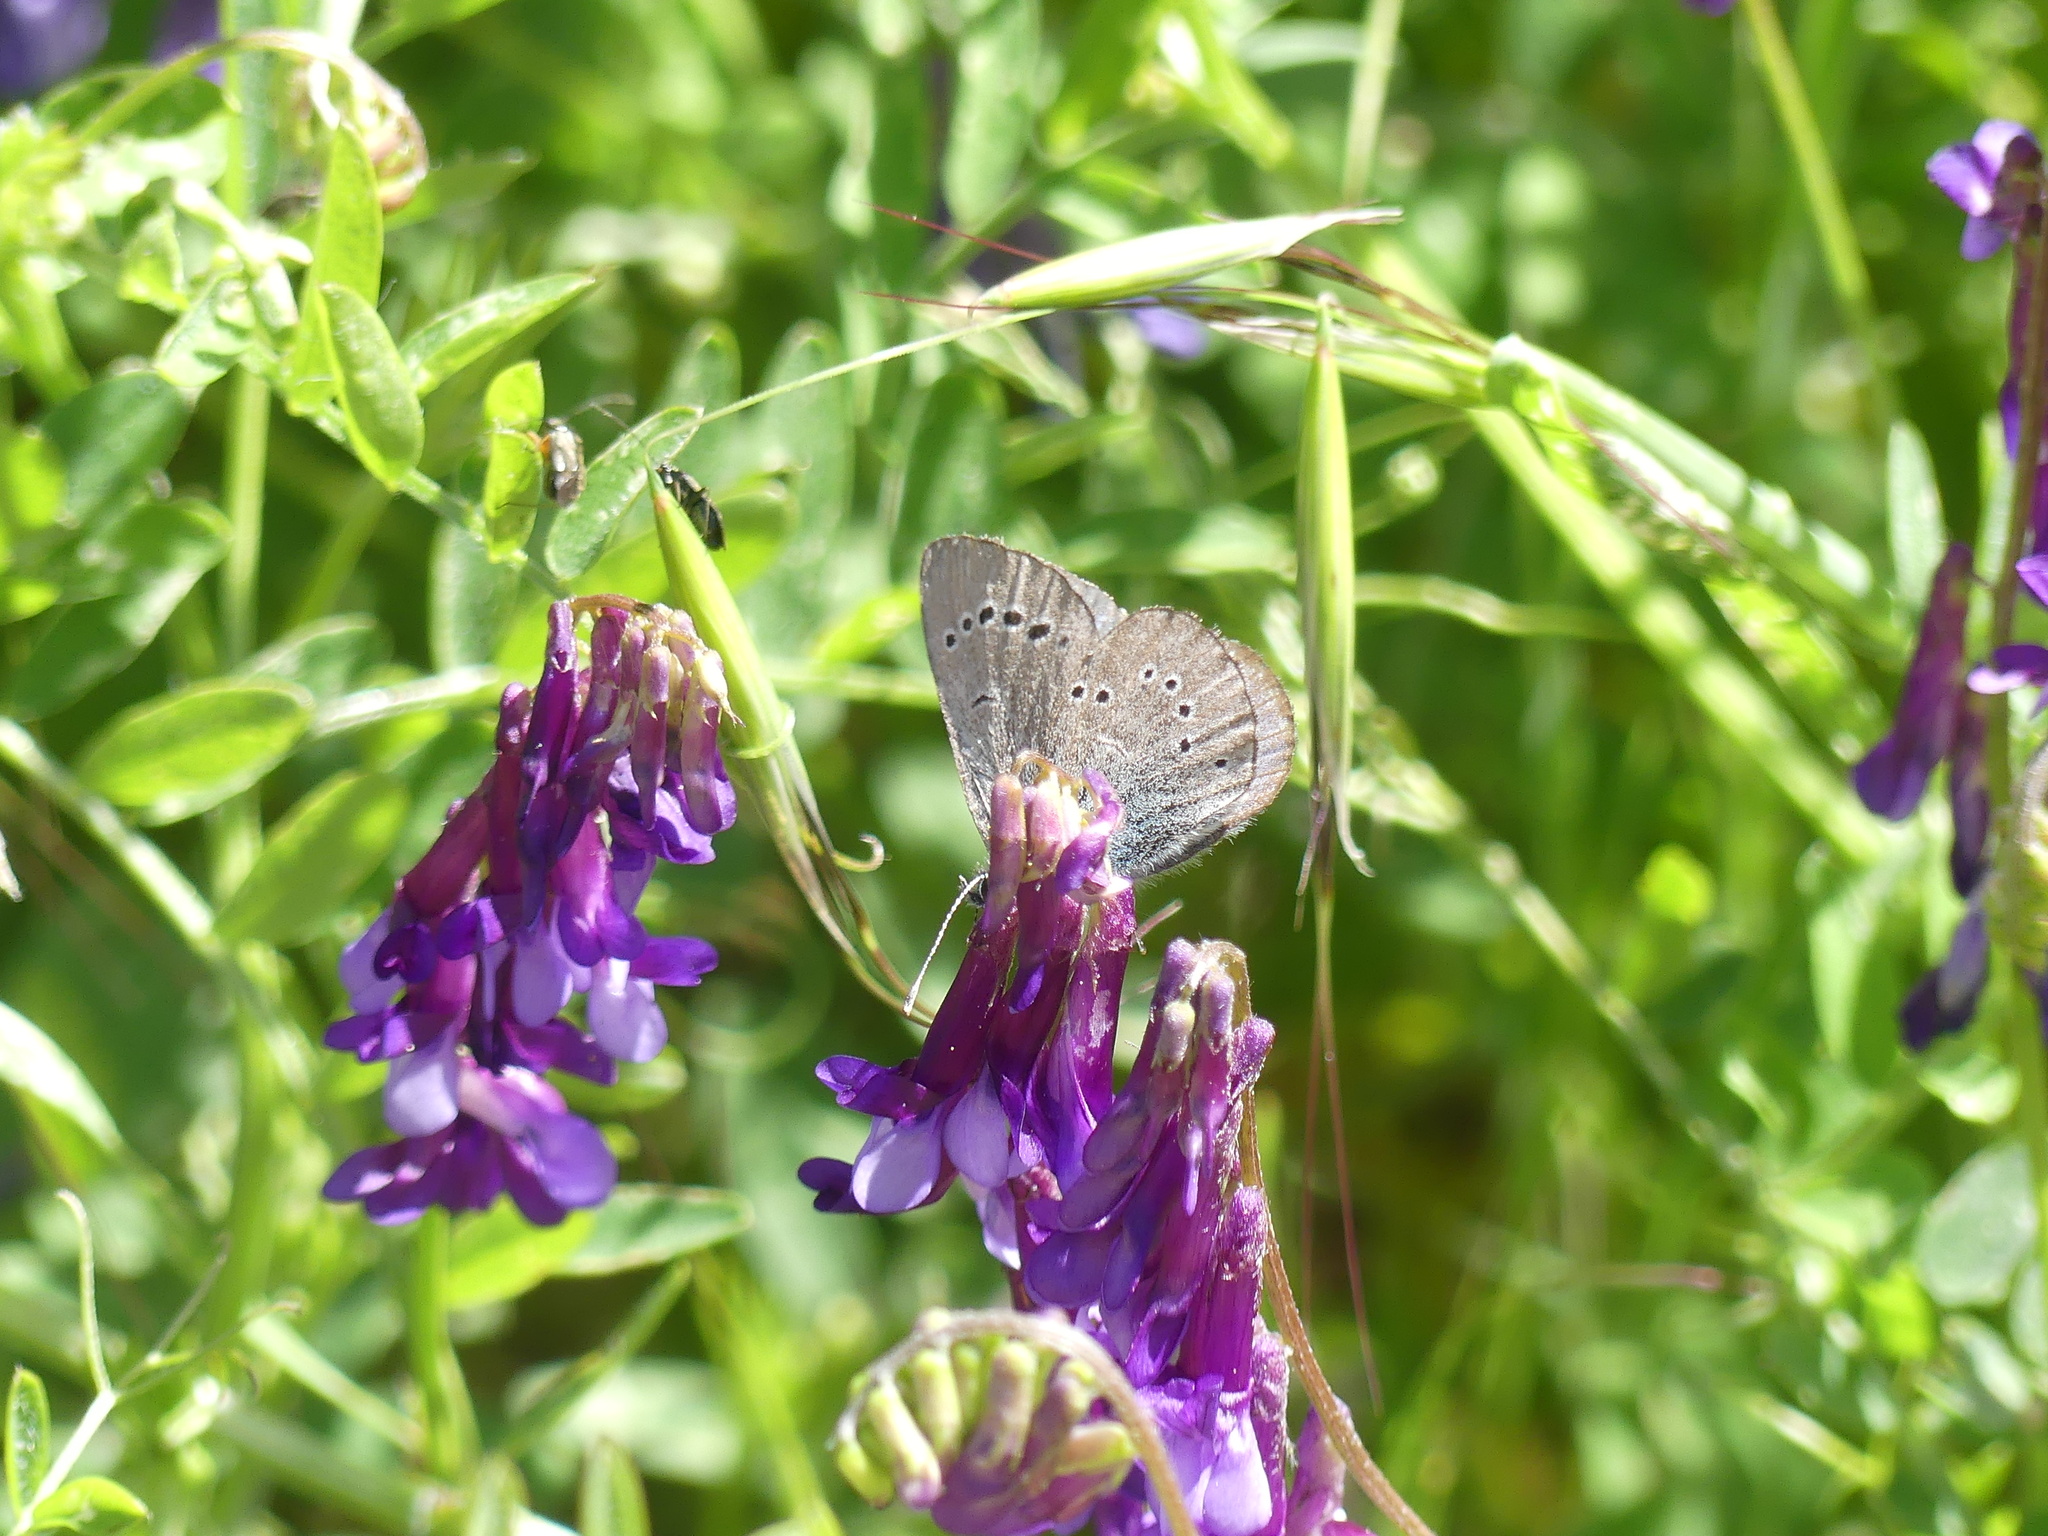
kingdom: Animalia
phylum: Arthropoda
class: Insecta
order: Lepidoptera
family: Lycaenidae
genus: Glaucopsyche
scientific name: Glaucopsyche lygdamus
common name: Silvery blue
